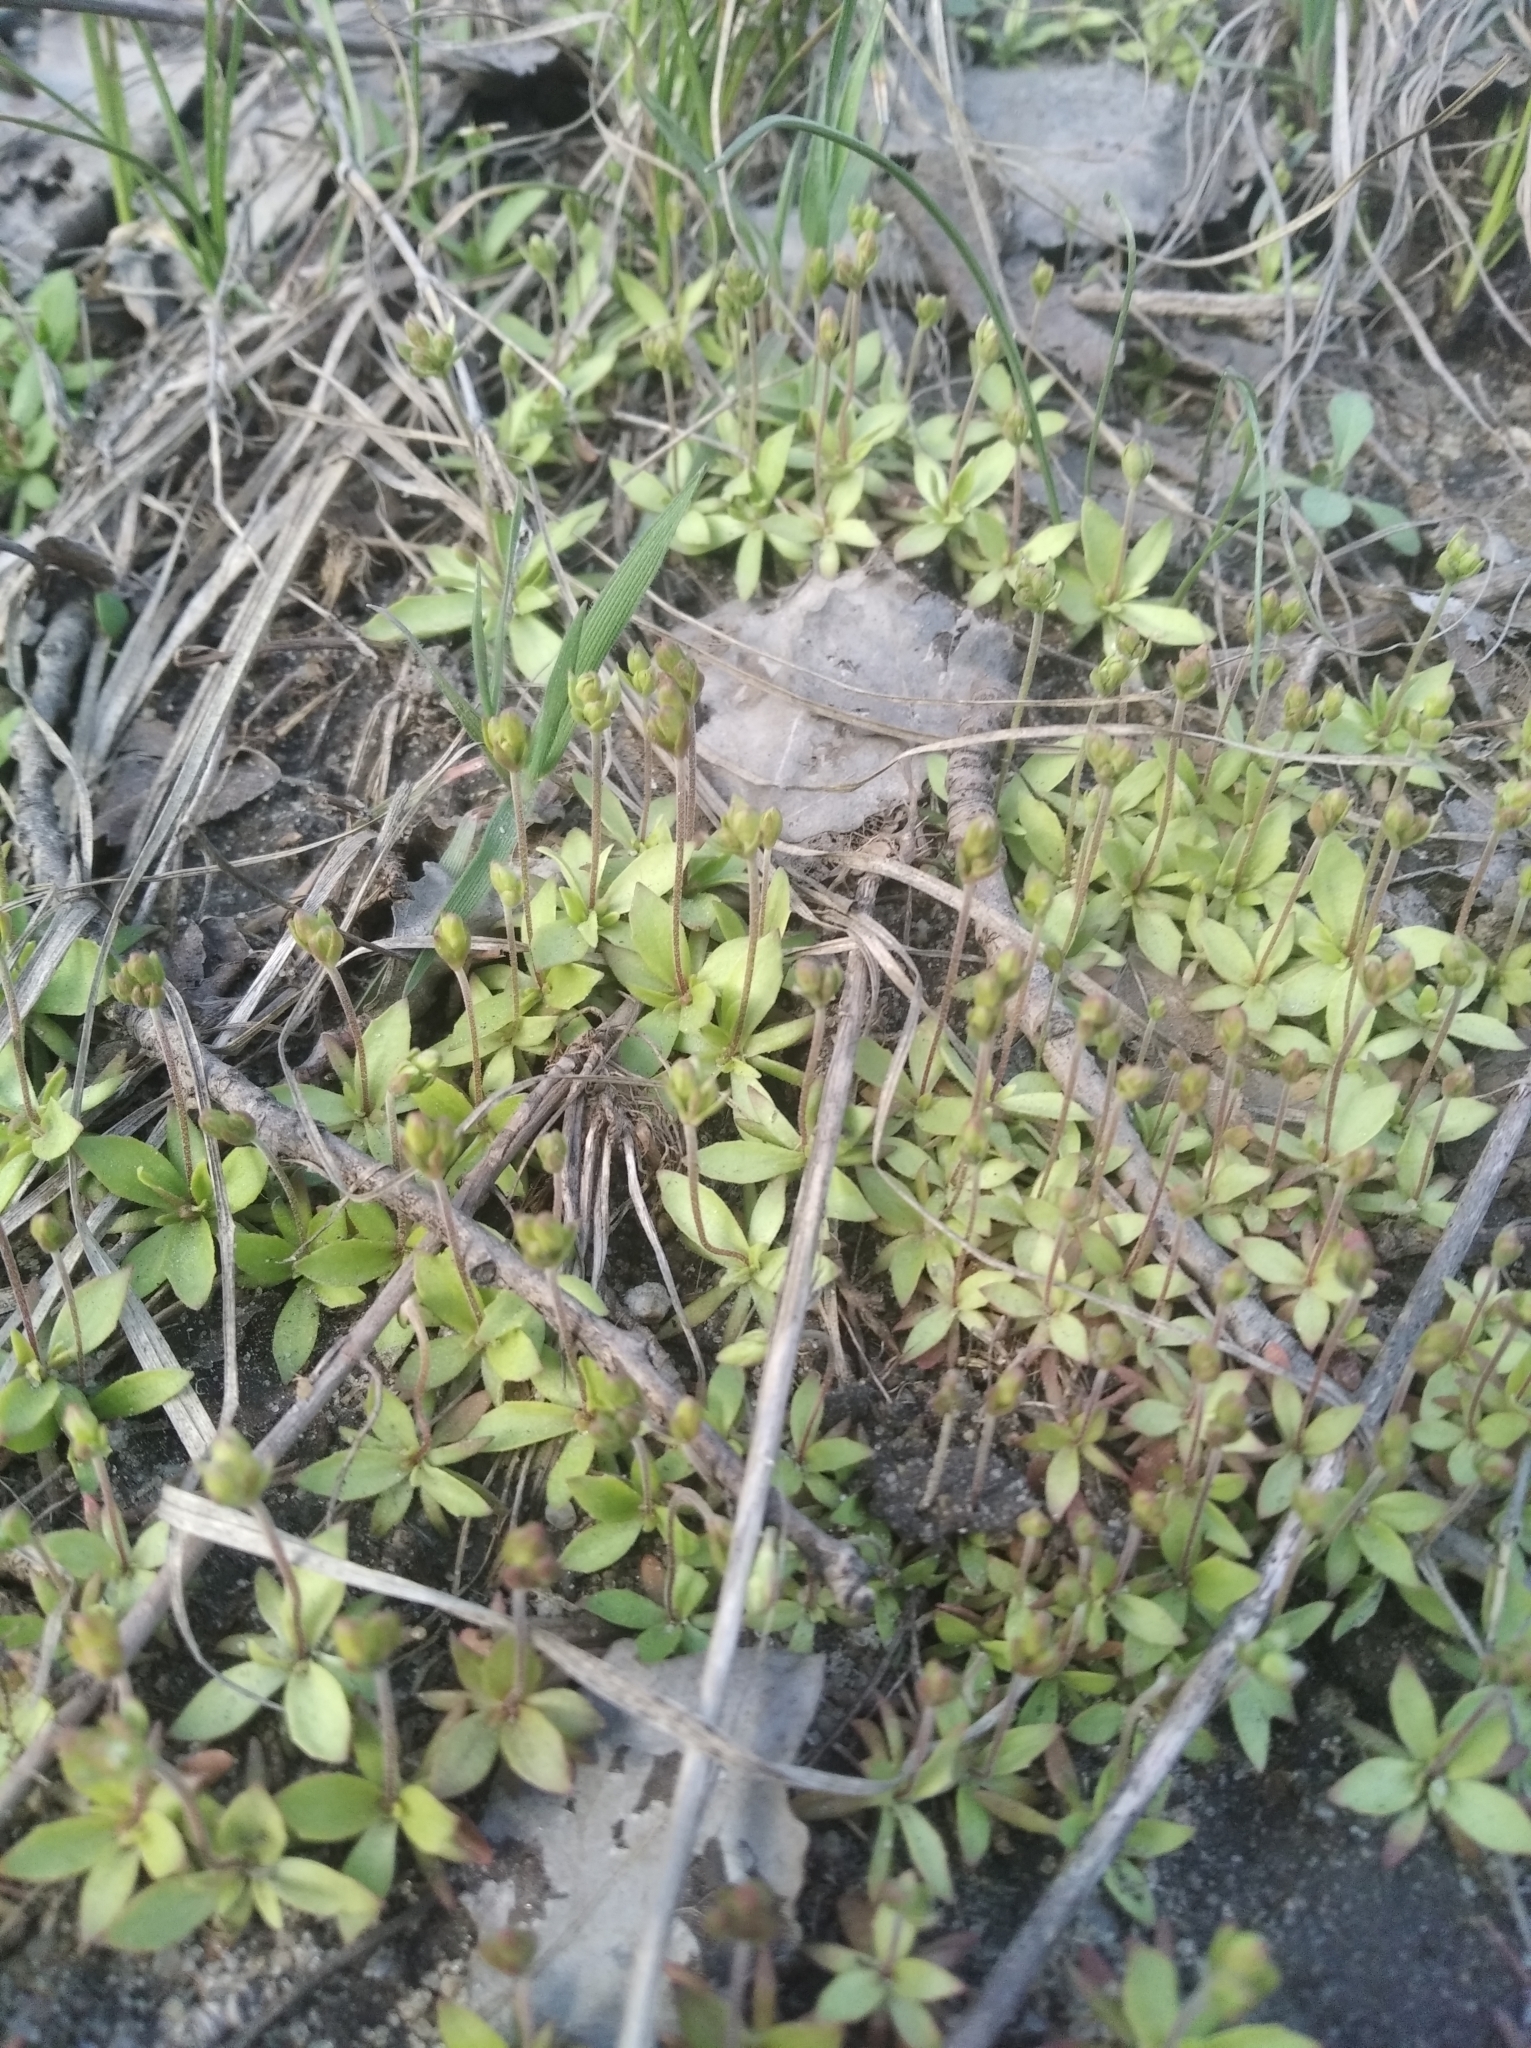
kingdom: Plantae
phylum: Tracheophyta
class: Magnoliopsida
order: Ericales
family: Primulaceae
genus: Androsace
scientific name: Androsace elongata
